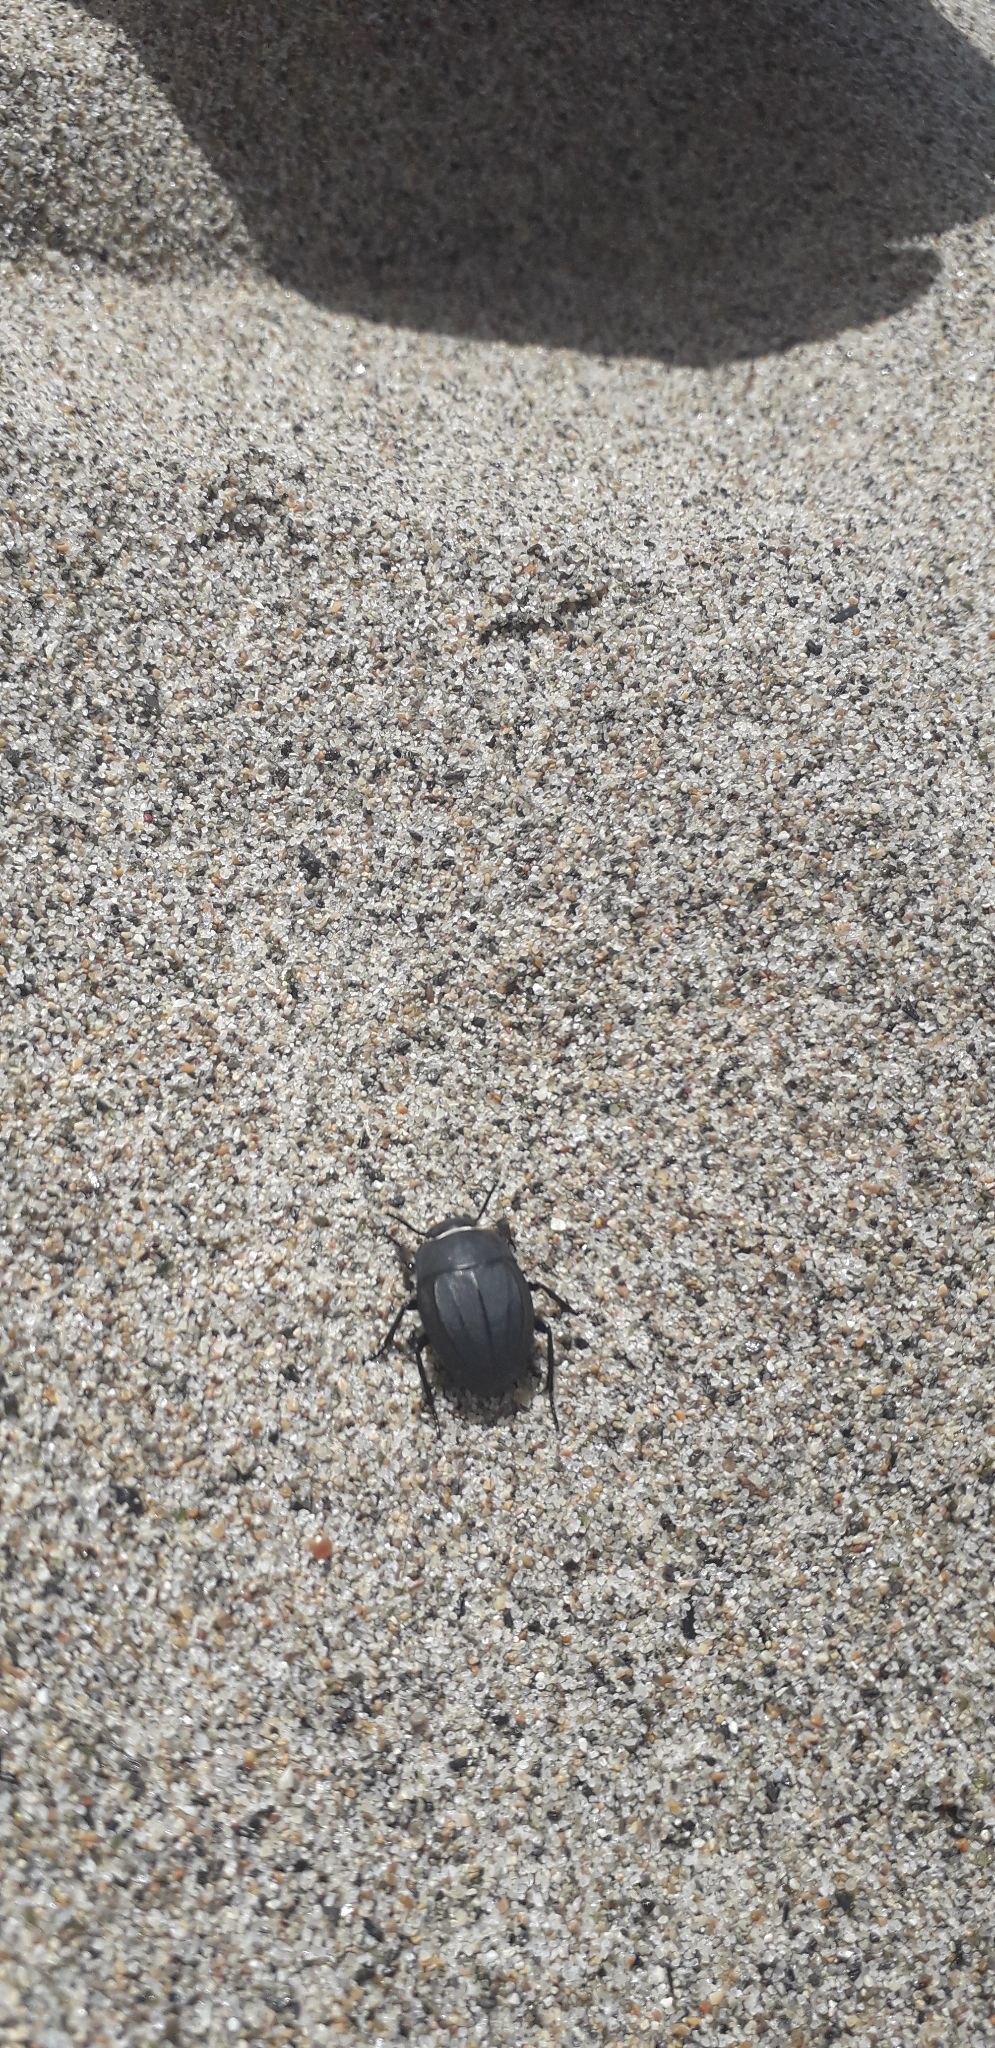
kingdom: Animalia
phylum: Arthropoda
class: Insecta
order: Coleoptera
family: Tenebrionidae
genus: Erodius
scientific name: Erodius siculus
